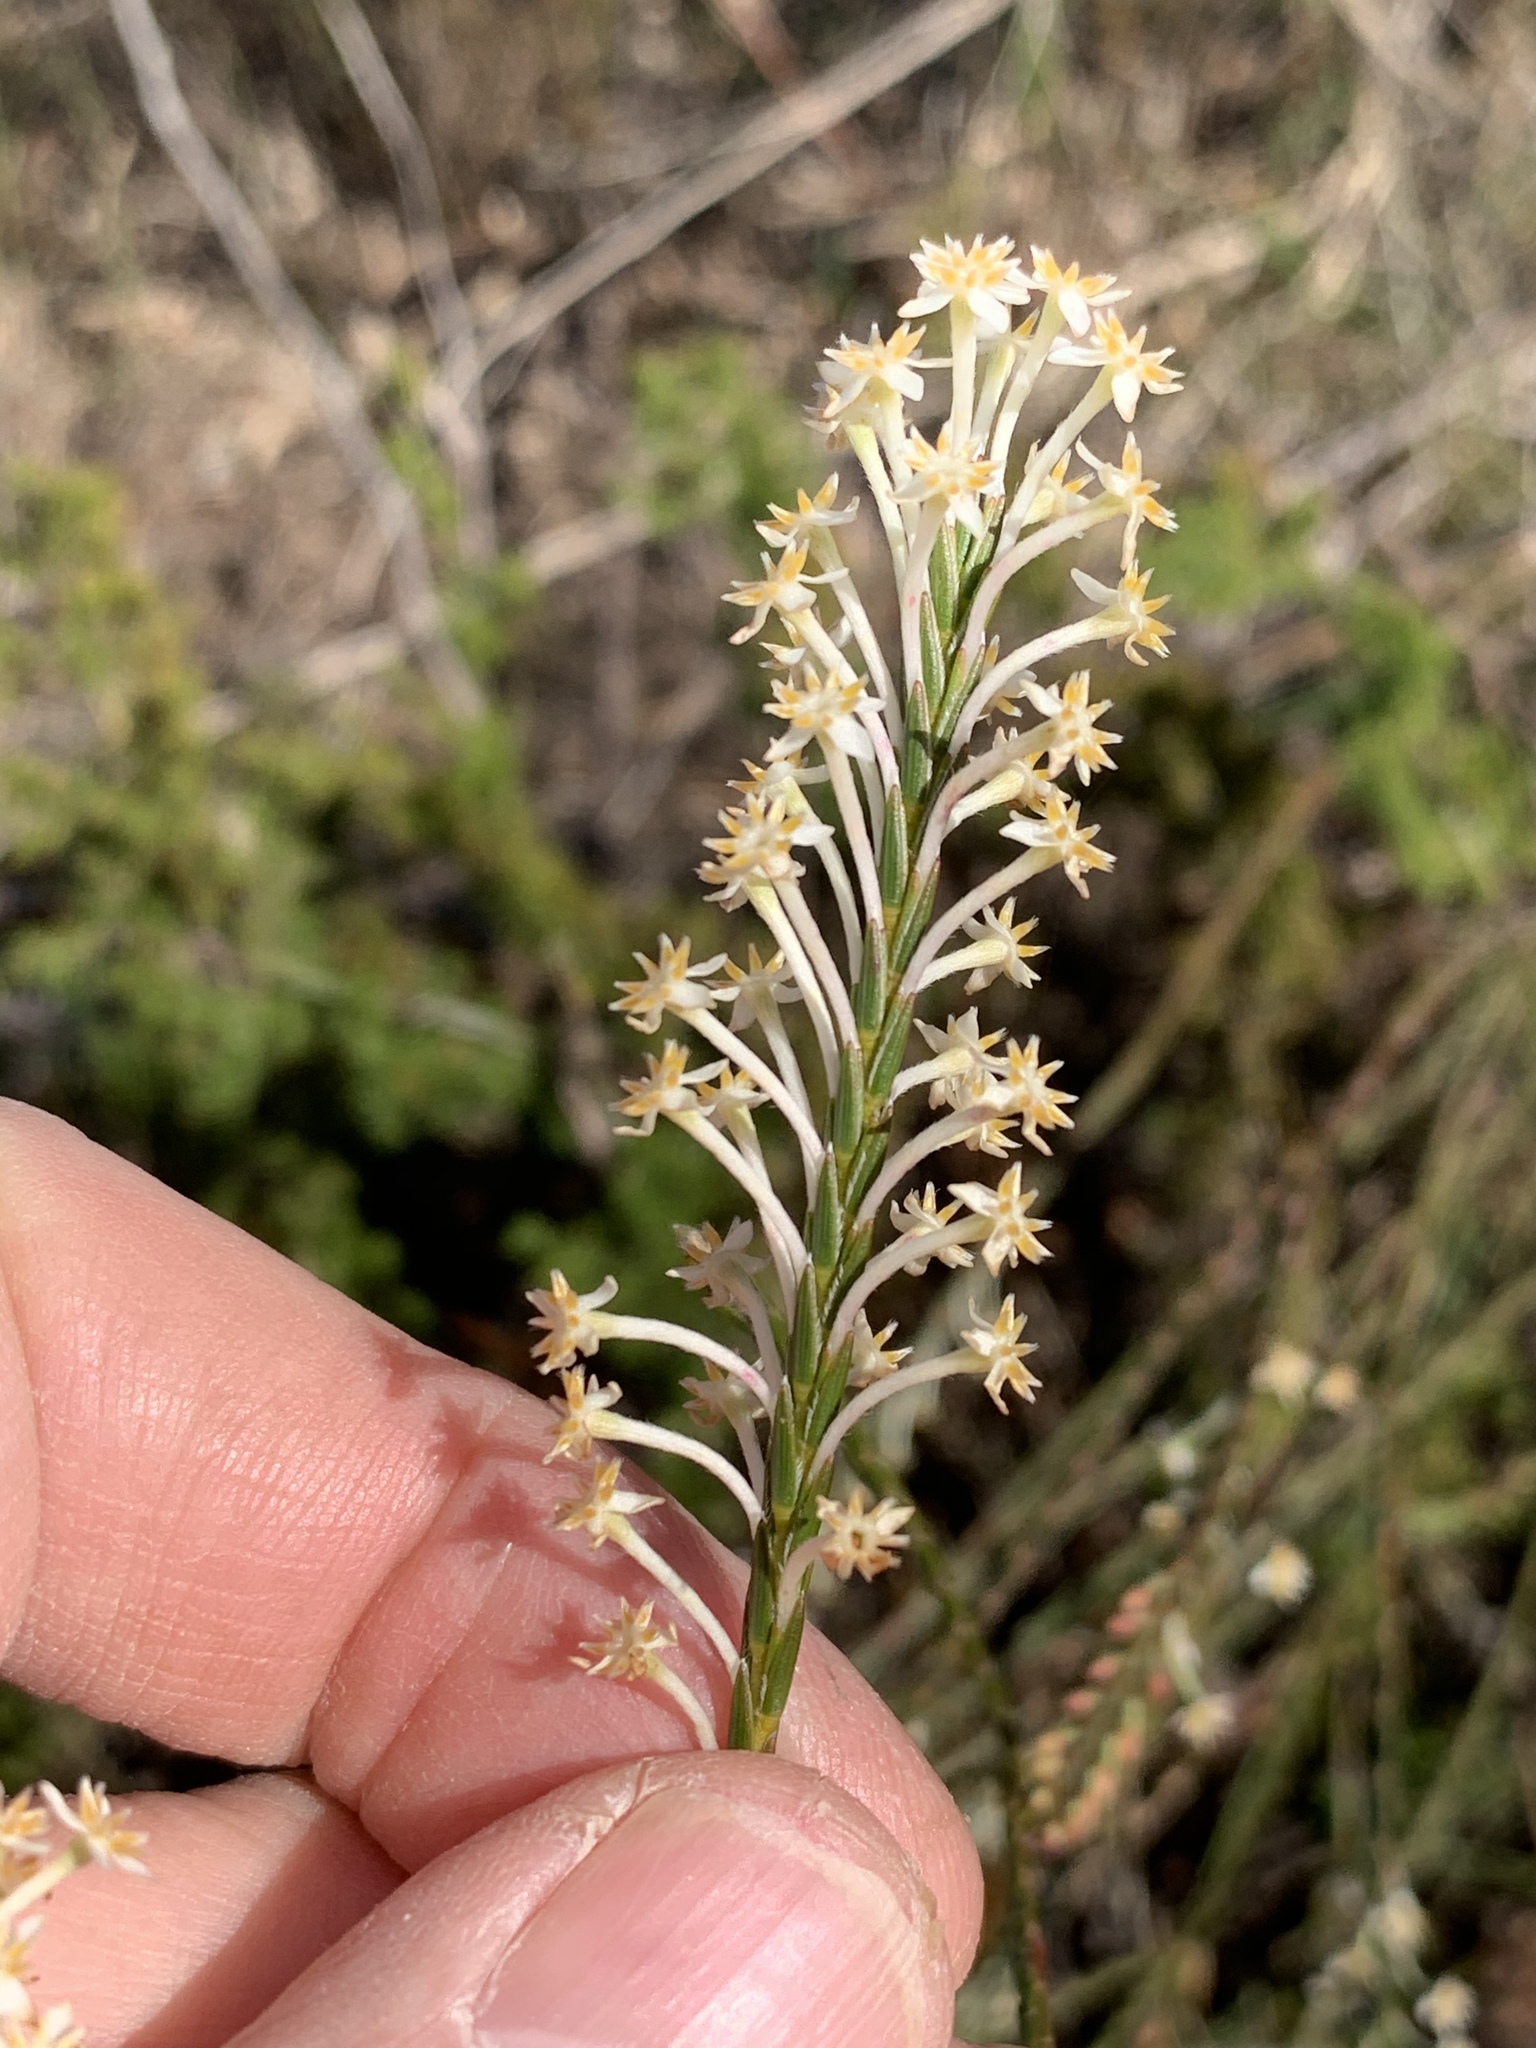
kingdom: Plantae
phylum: Tracheophyta
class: Magnoliopsida
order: Malvales
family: Thymelaeaceae
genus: Struthiola
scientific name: Struthiola ciliata
